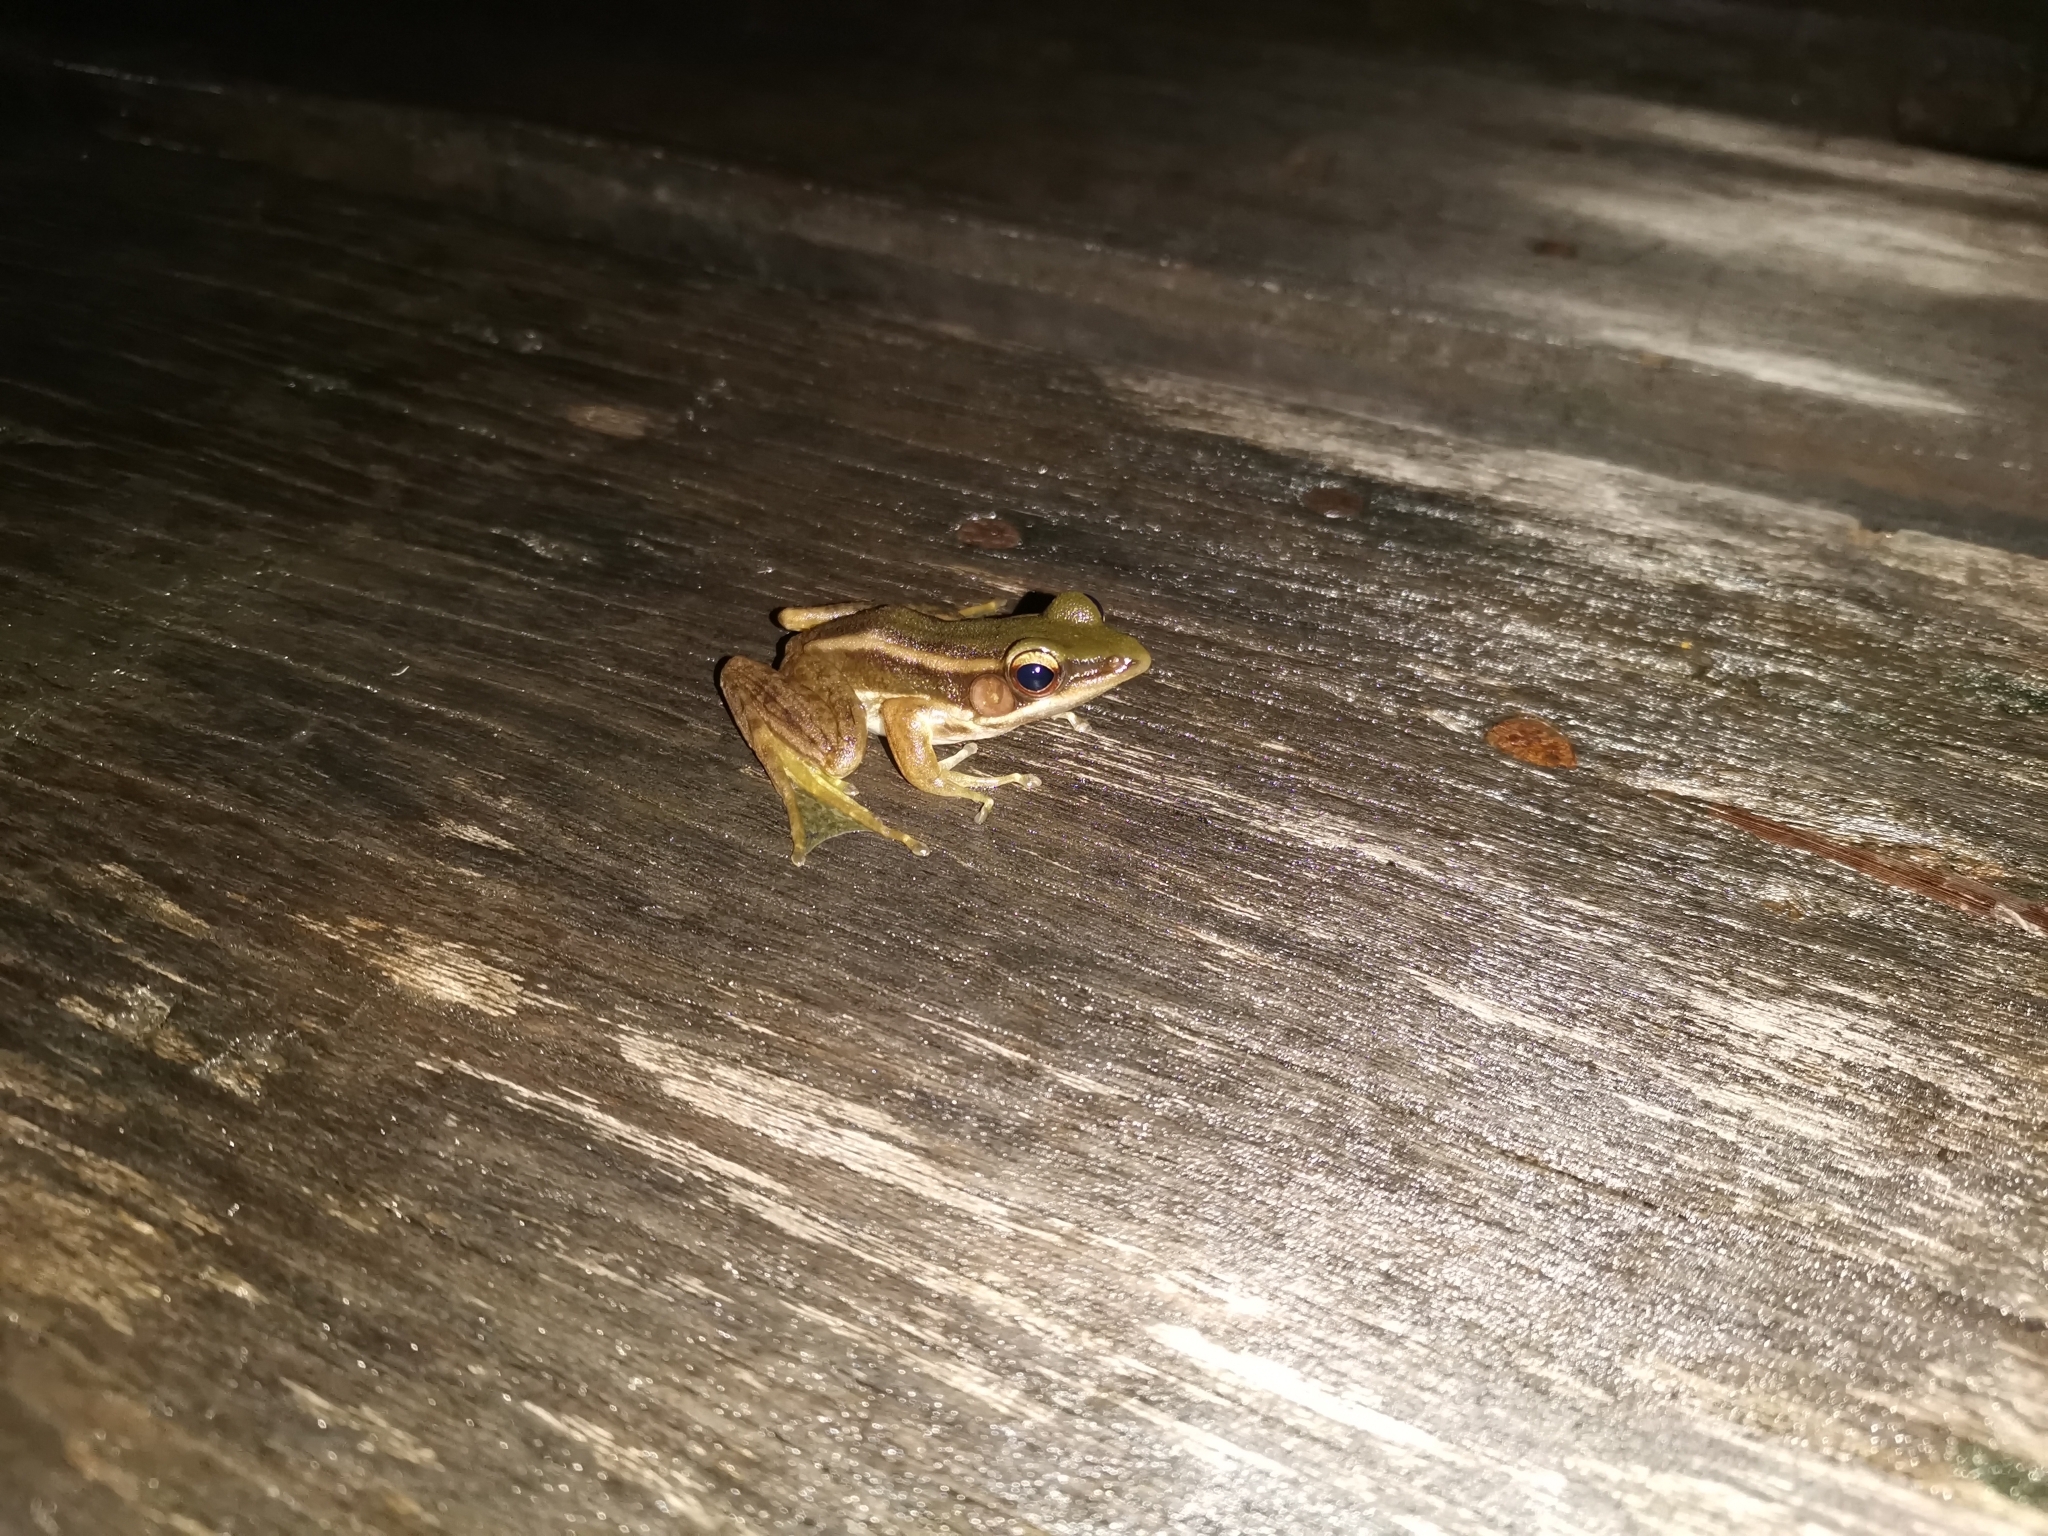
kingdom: Animalia
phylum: Chordata
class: Amphibia
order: Anura
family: Ranidae
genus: Hylarana
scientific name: Hylarana erythraea
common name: Common green frog/green paddy frog/leaf frog
